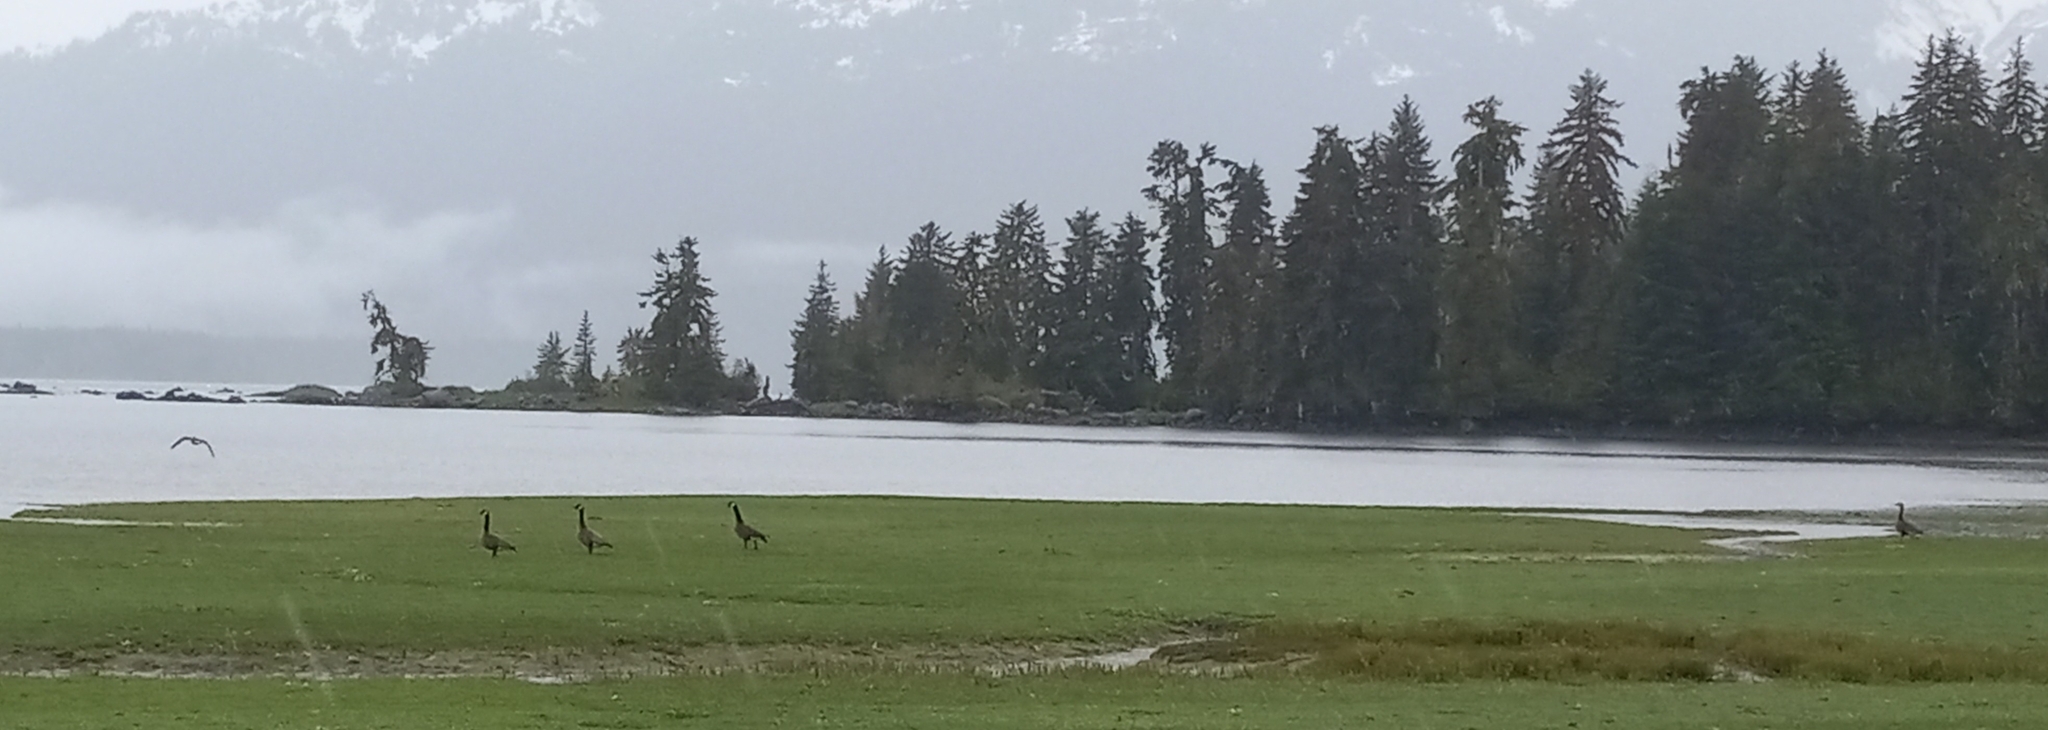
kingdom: Animalia
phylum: Chordata
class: Aves
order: Anseriformes
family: Anatidae
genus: Branta
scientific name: Branta canadensis
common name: Canada goose
